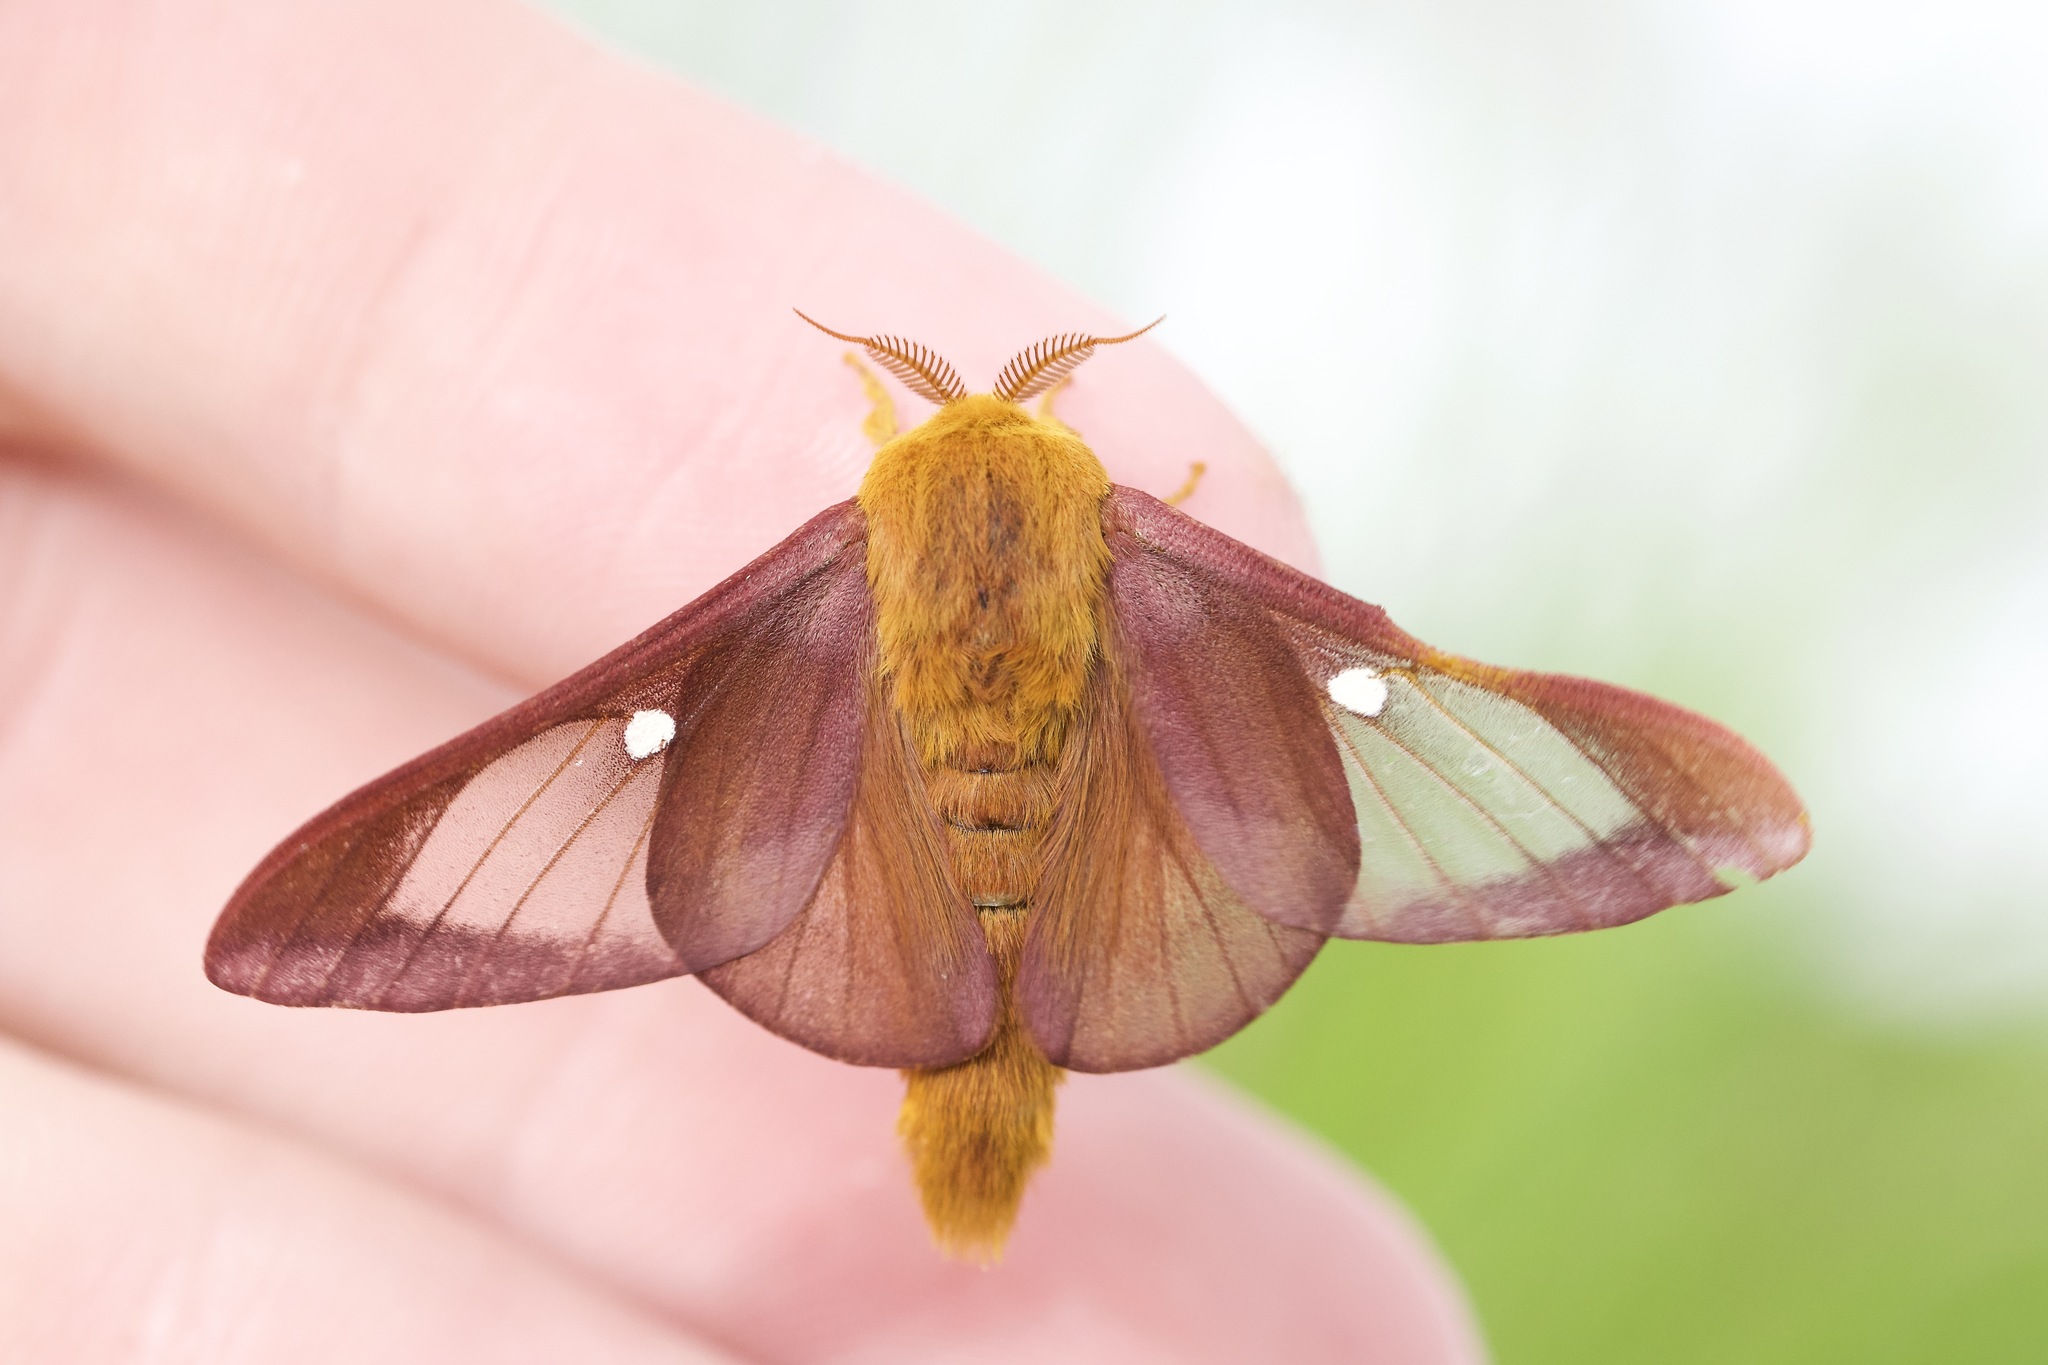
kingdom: Animalia
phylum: Arthropoda
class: Insecta
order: Lepidoptera
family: Saturniidae
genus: Anisota
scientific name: Anisota virginiensis
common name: Pink striped oakworm moth
